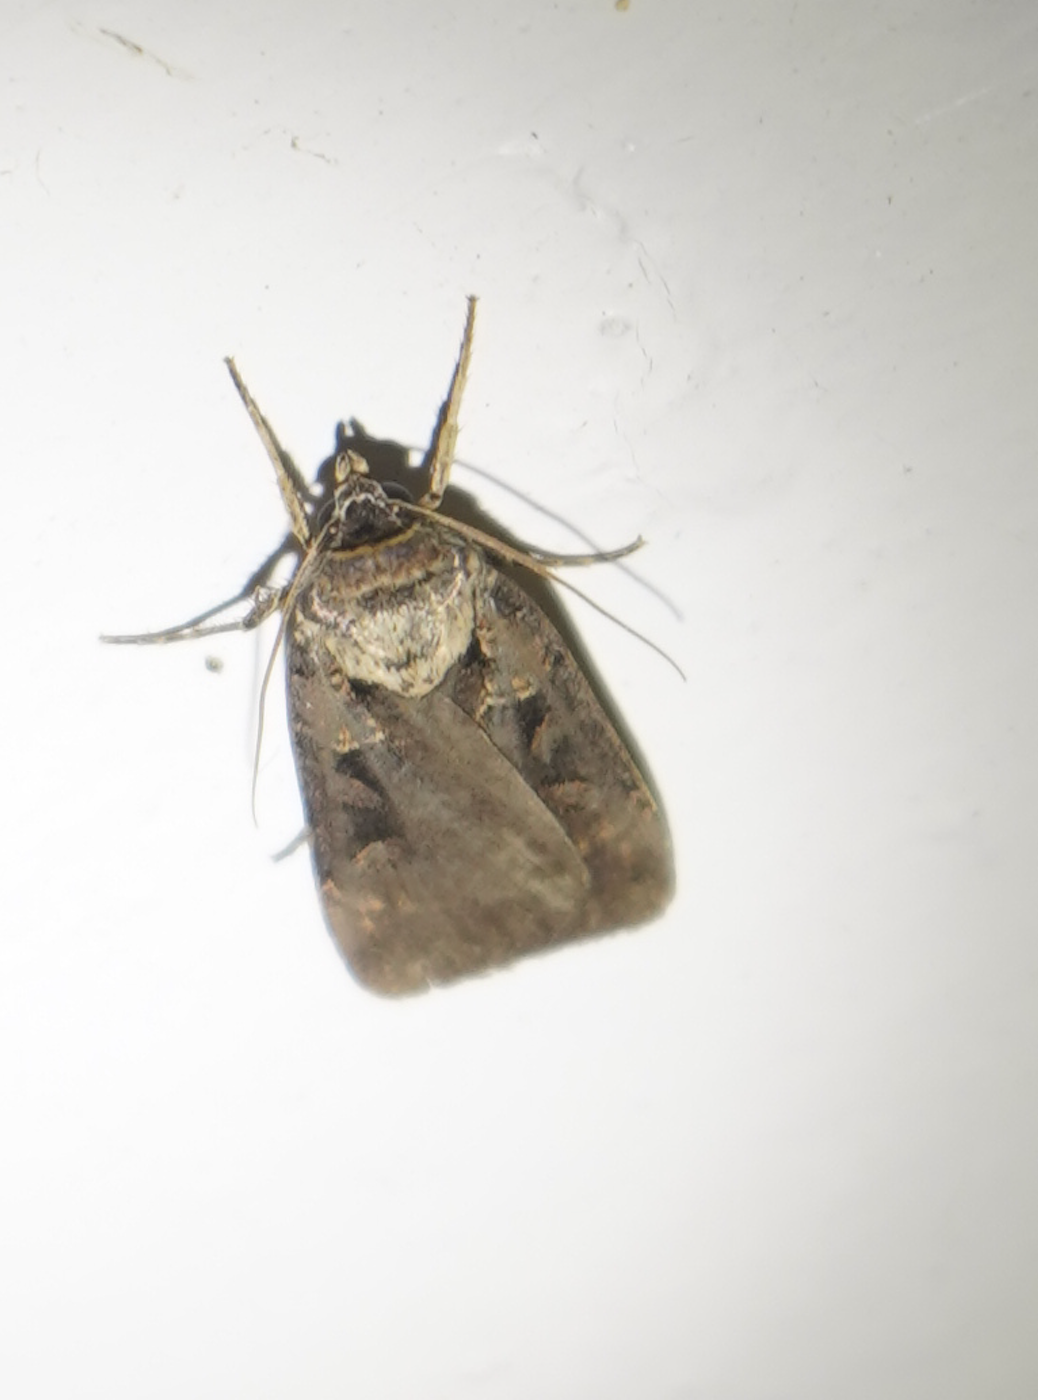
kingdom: Animalia
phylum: Arthropoda
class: Insecta
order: Lepidoptera
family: Noctuidae
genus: Pseudohermonassa
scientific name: Pseudohermonassa bicarnea
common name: Pink spotted dart
